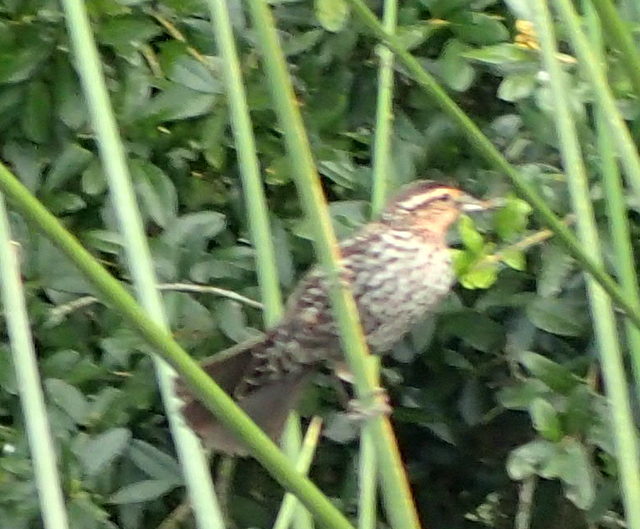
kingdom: Animalia
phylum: Chordata
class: Aves
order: Passeriformes
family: Icteridae
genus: Agelaius
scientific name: Agelaius phoeniceus
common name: Red-winged blackbird
